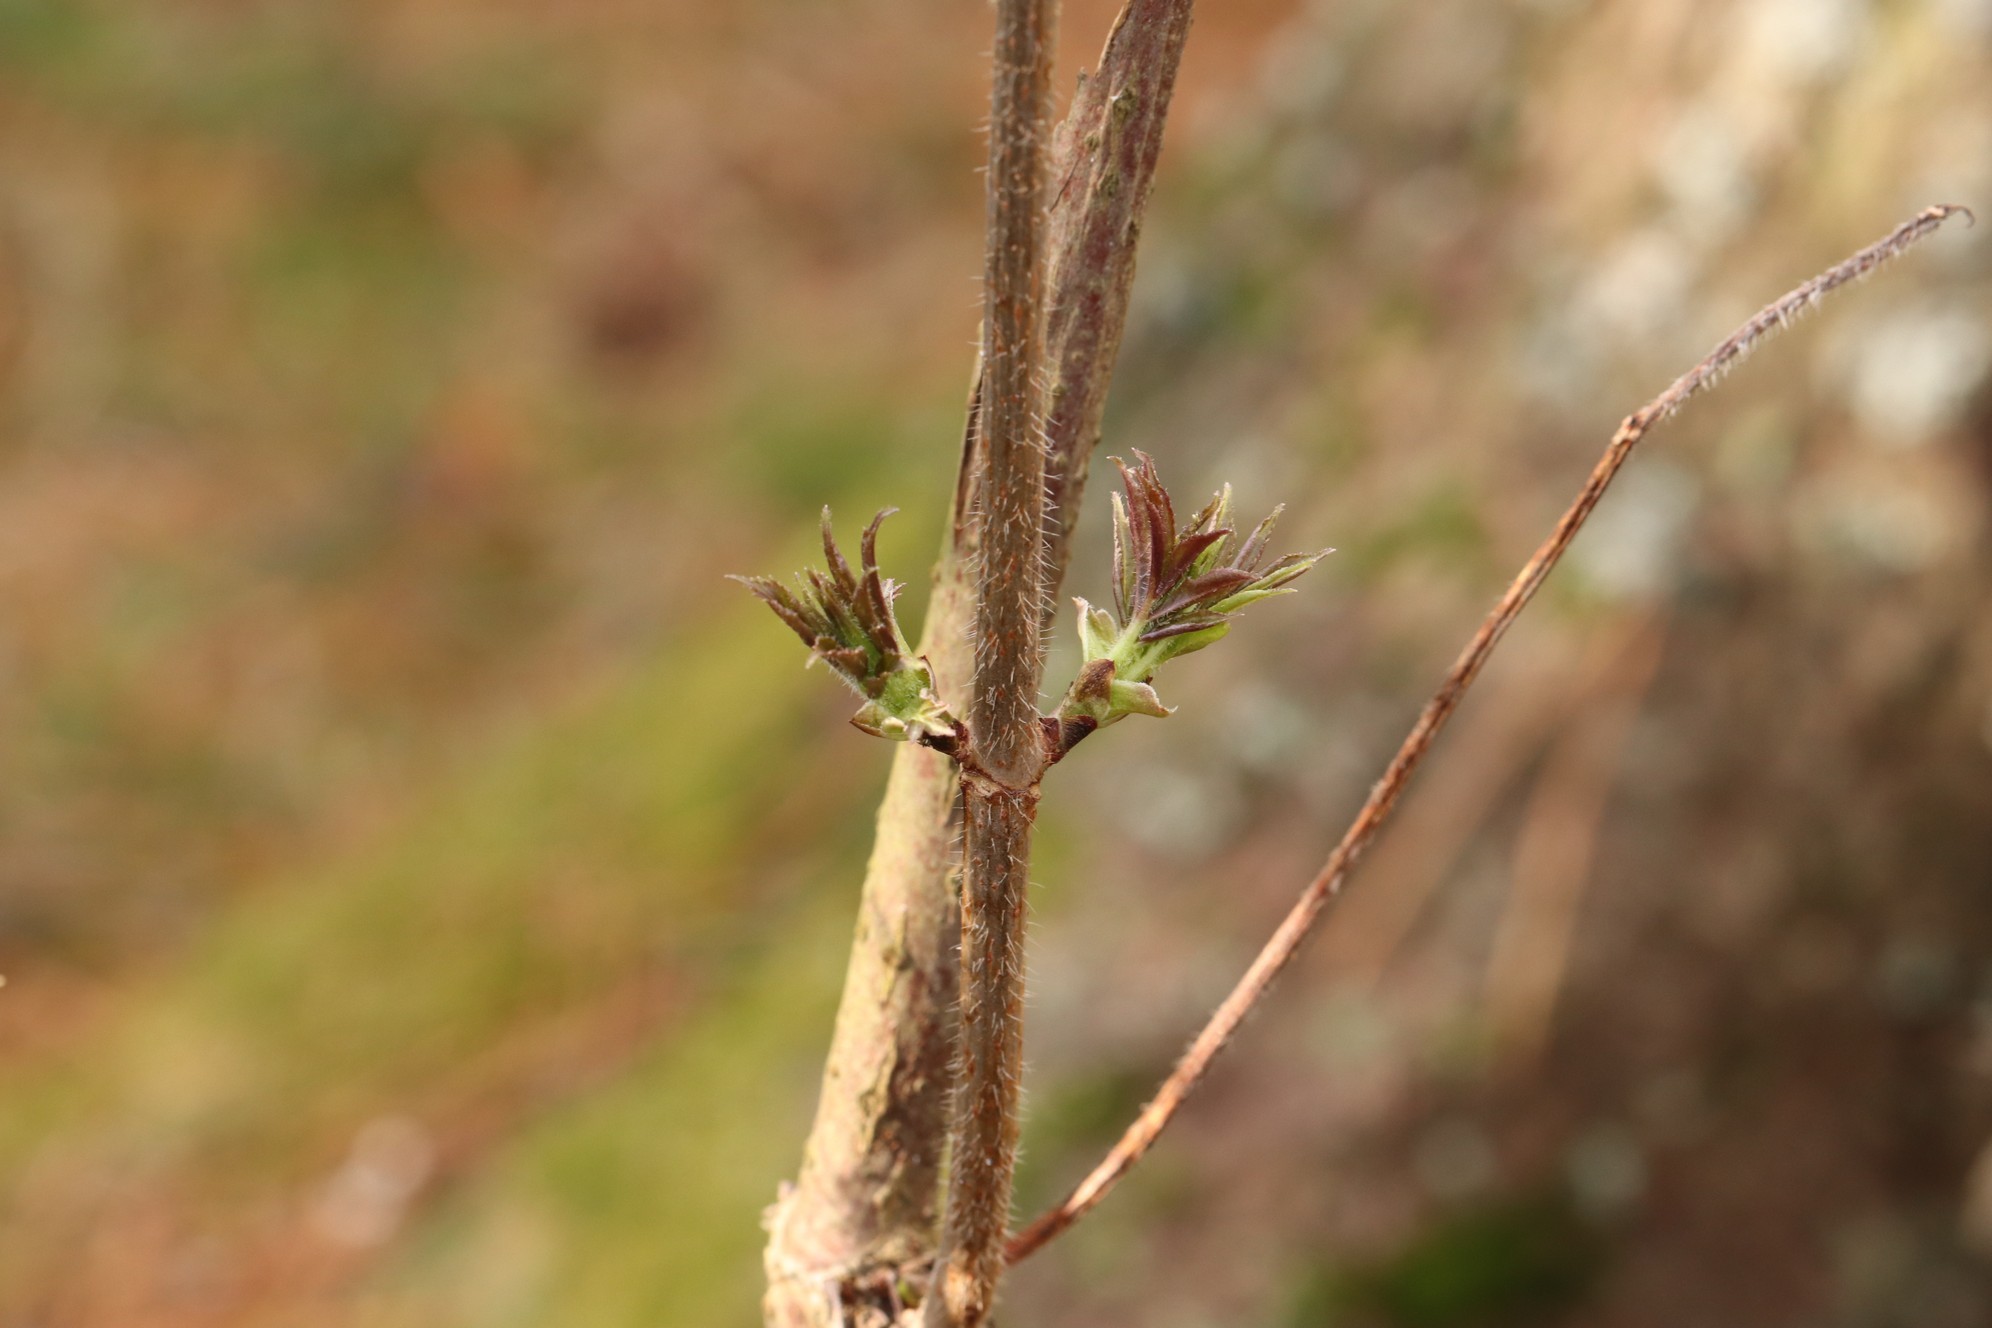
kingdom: Plantae
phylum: Tracheophyta
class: Magnoliopsida
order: Dipsacales
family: Viburnaceae
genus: Sambucus
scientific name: Sambucus sibirica
